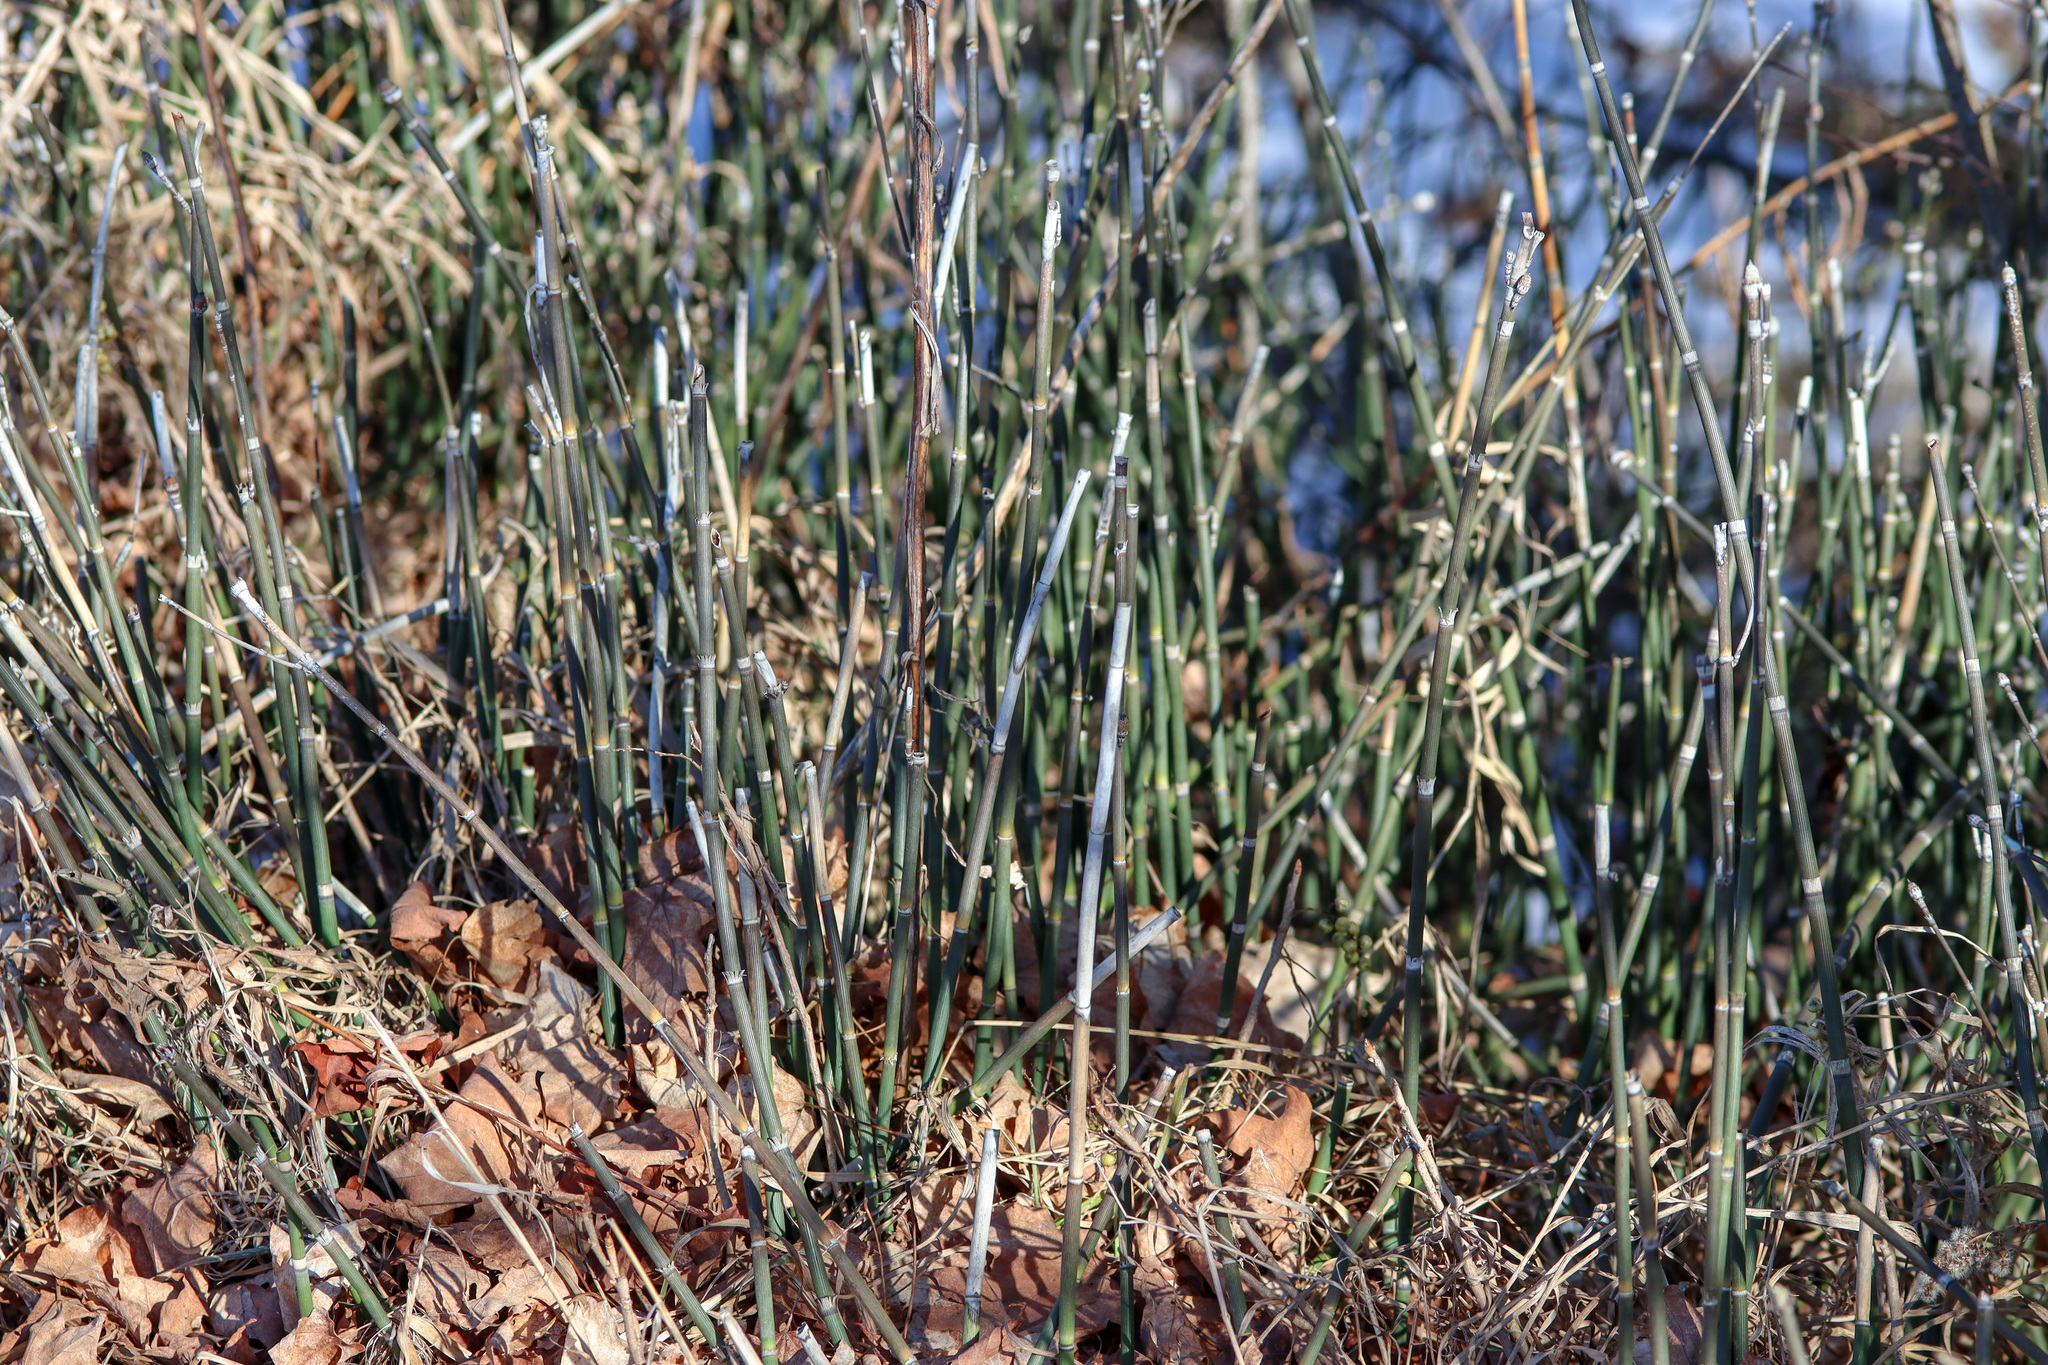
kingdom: Plantae
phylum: Tracheophyta
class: Polypodiopsida
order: Equisetales
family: Equisetaceae
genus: Equisetum
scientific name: Equisetum hyemale
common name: Rough horsetail
